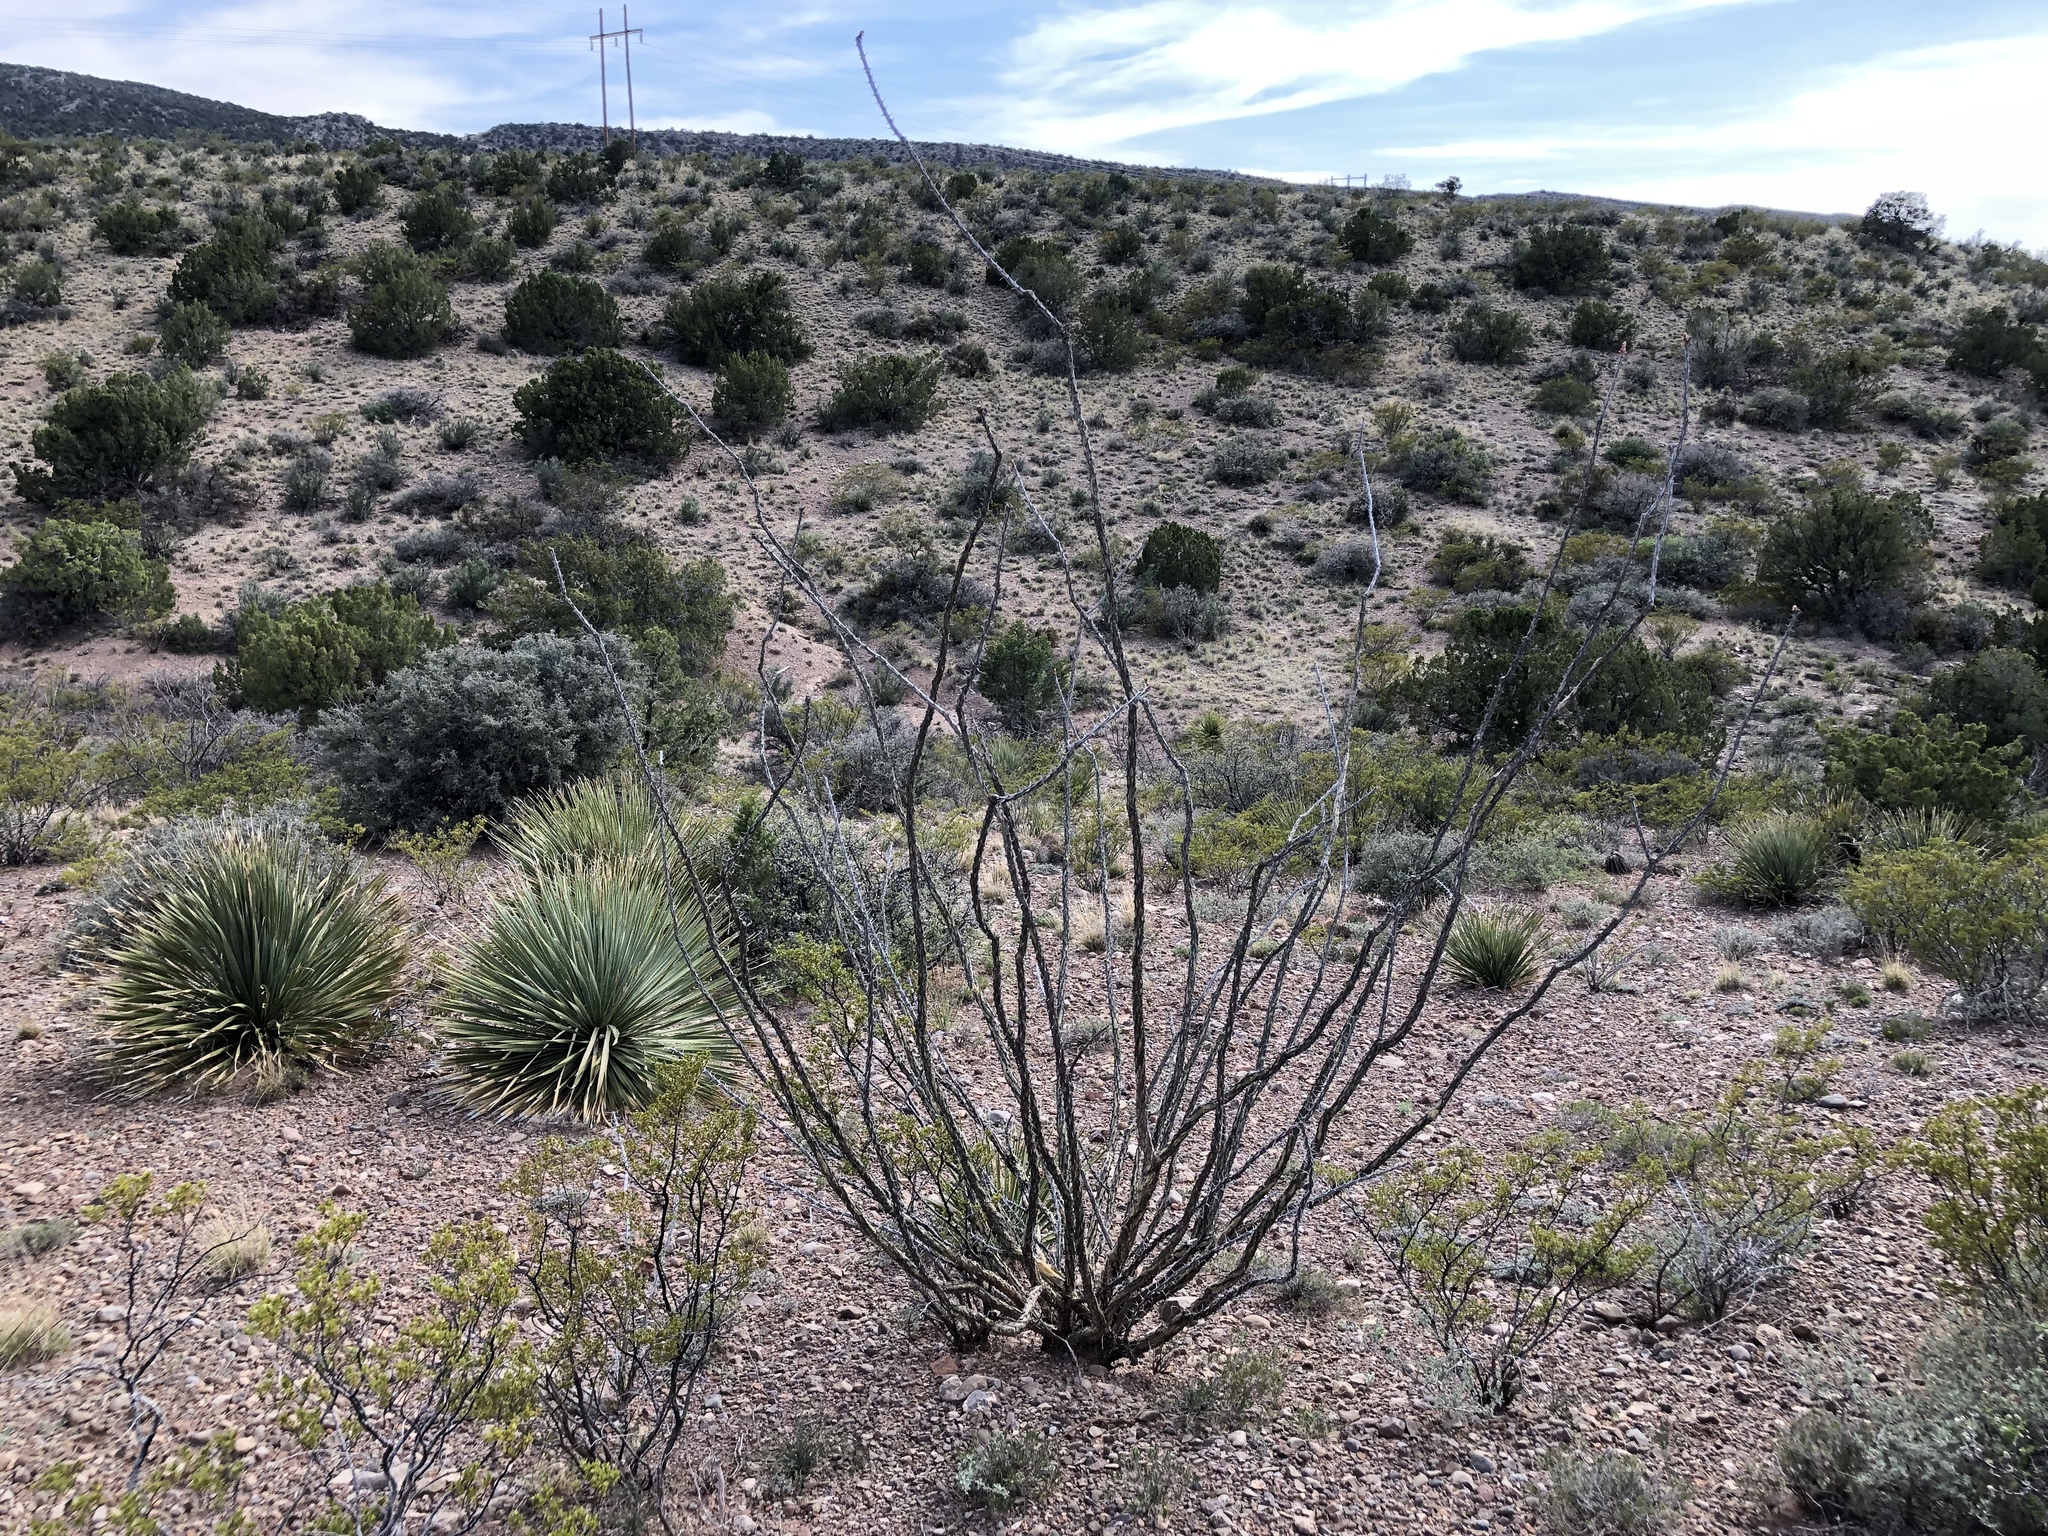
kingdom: Plantae
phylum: Tracheophyta
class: Magnoliopsida
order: Ericales
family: Fouquieriaceae
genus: Fouquieria
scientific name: Fouquieria splendens
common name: Vine-cactus
